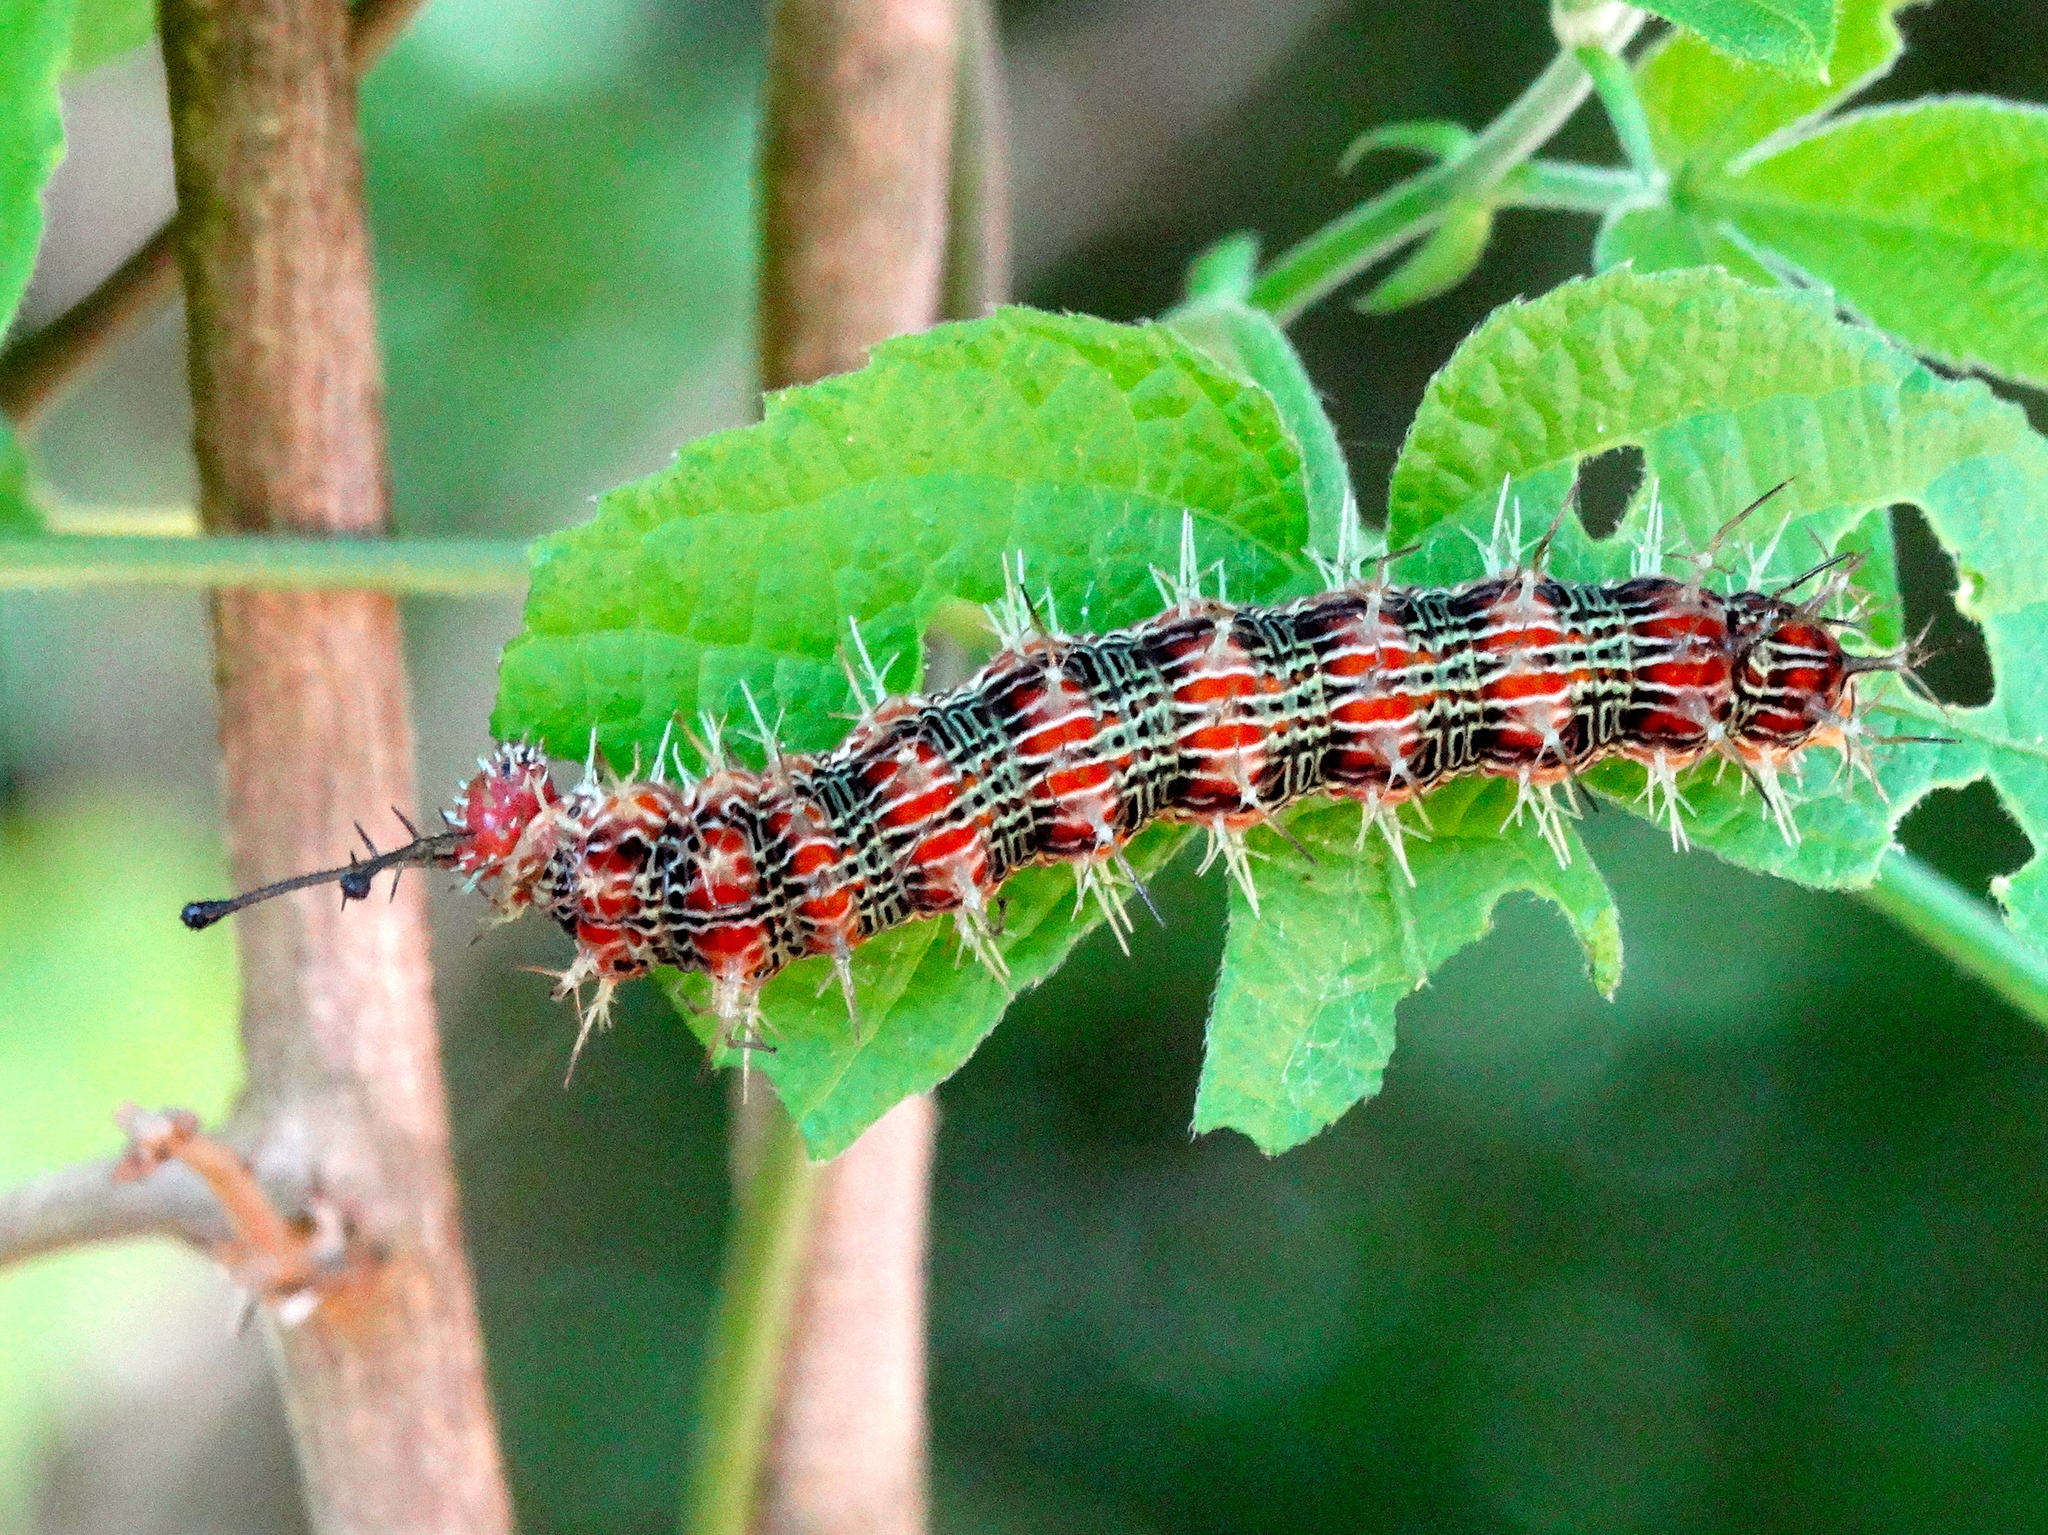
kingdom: Animalia
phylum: Arthropoda
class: Insecta
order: Lepidoptera
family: Nymphalidae
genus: Hamadryas
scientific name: Hamadryas
